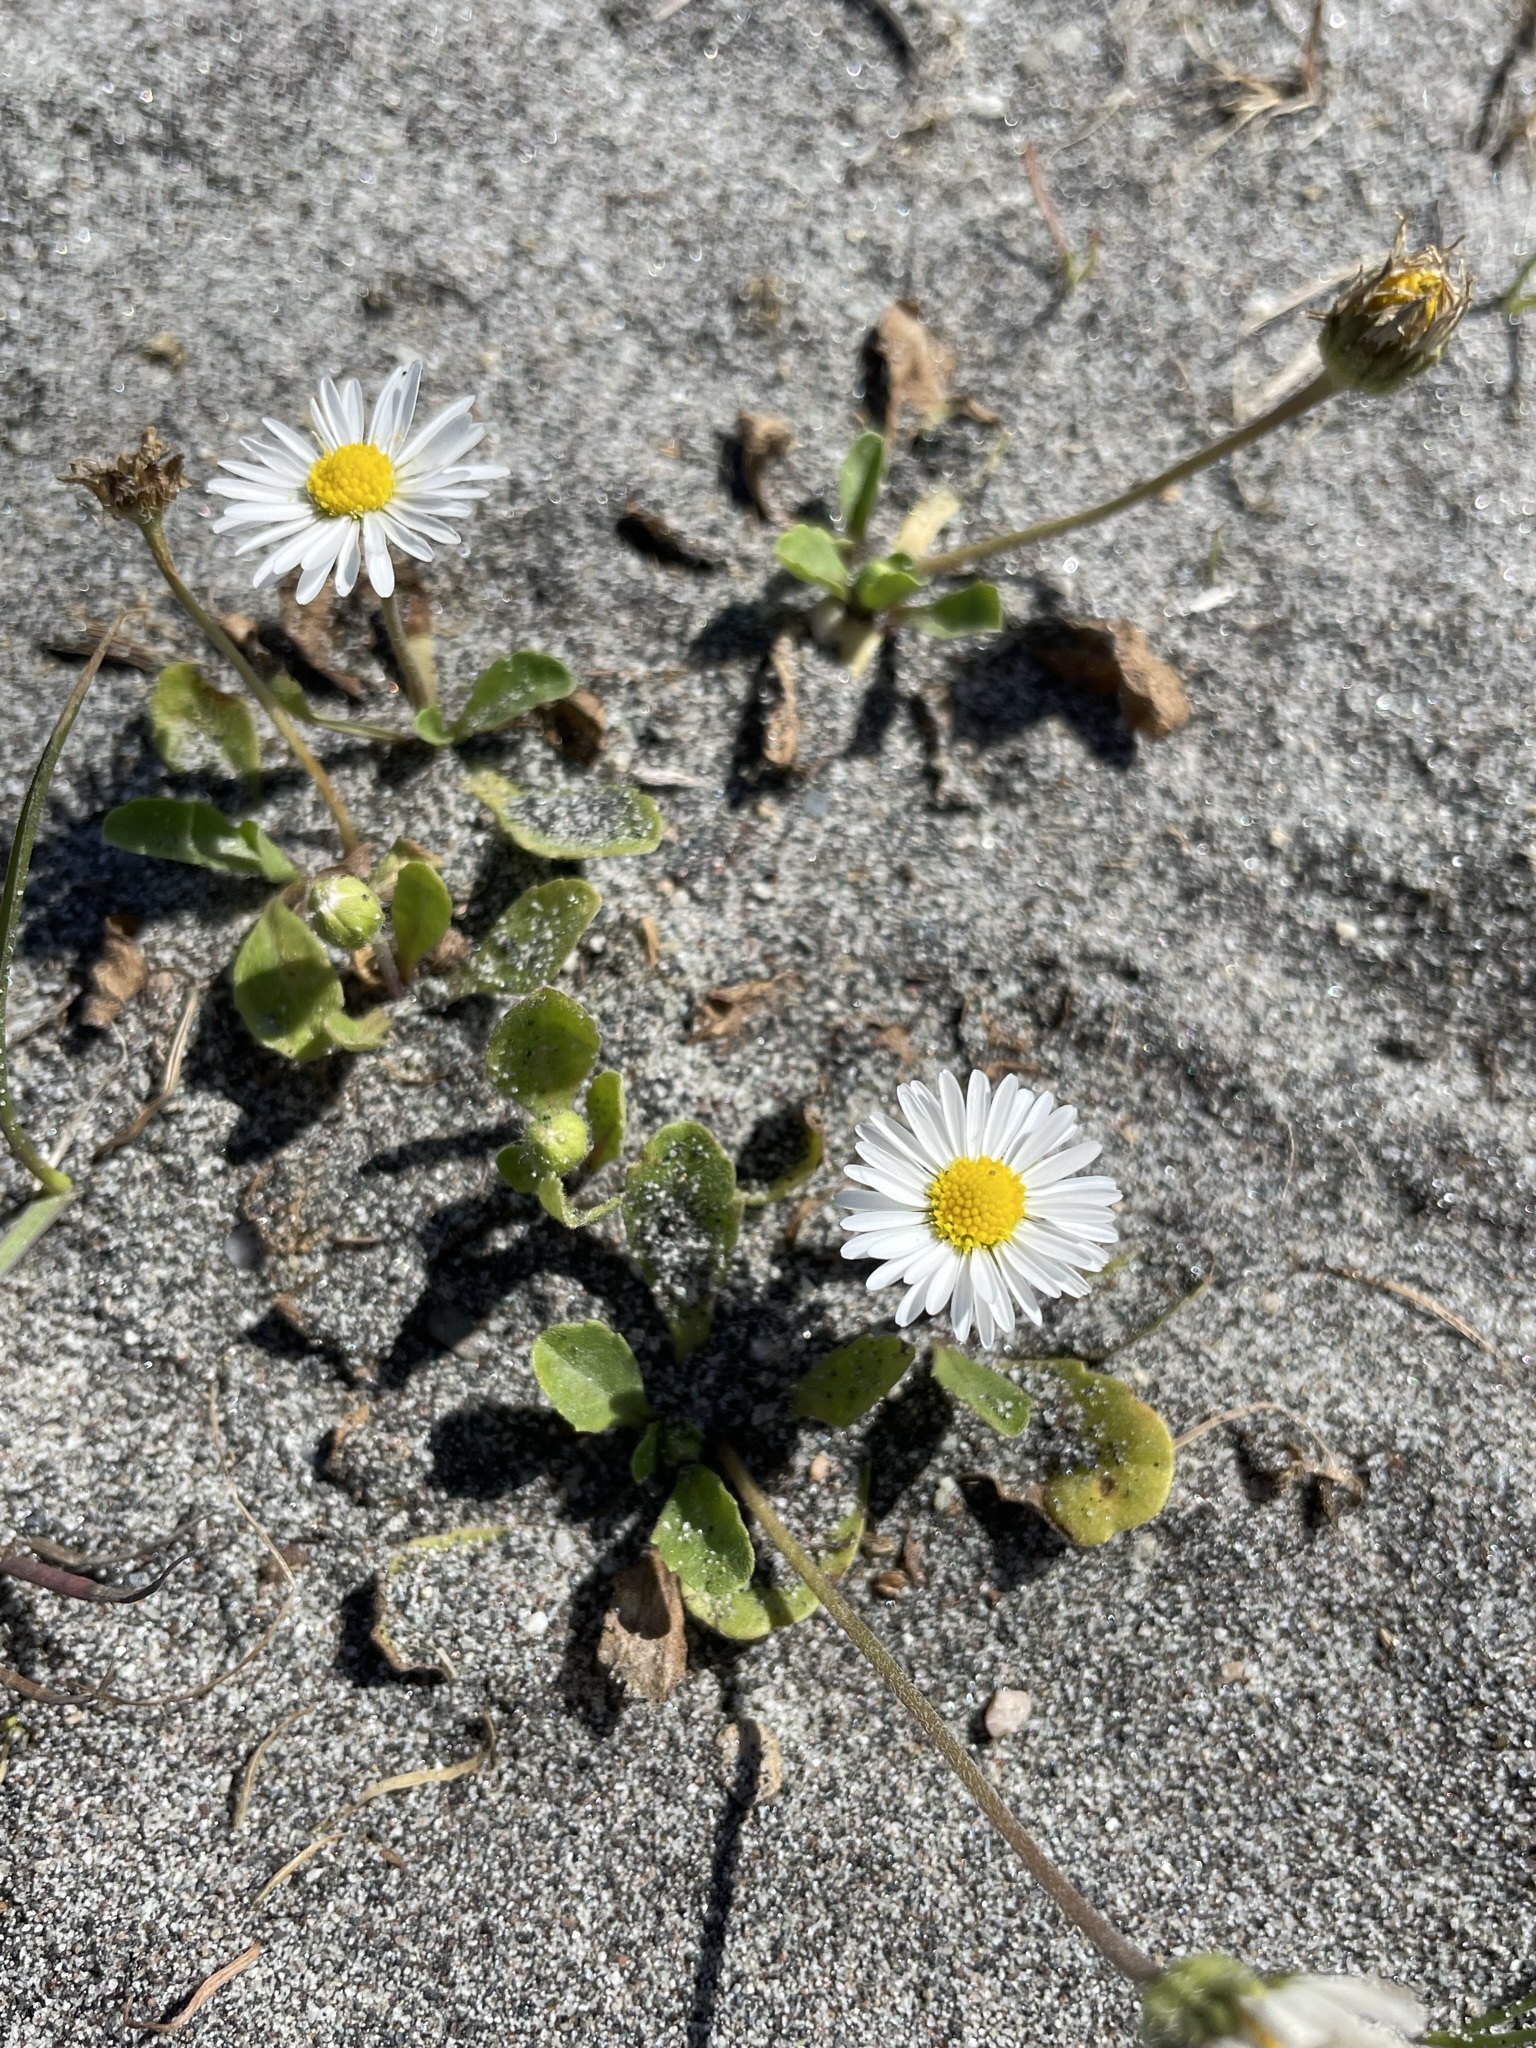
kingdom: Plantae
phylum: Tracheophyta
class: Magnoliopsida
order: Asterales
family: Asteraceae
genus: Lagenophora
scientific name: Lagenophora pumila
